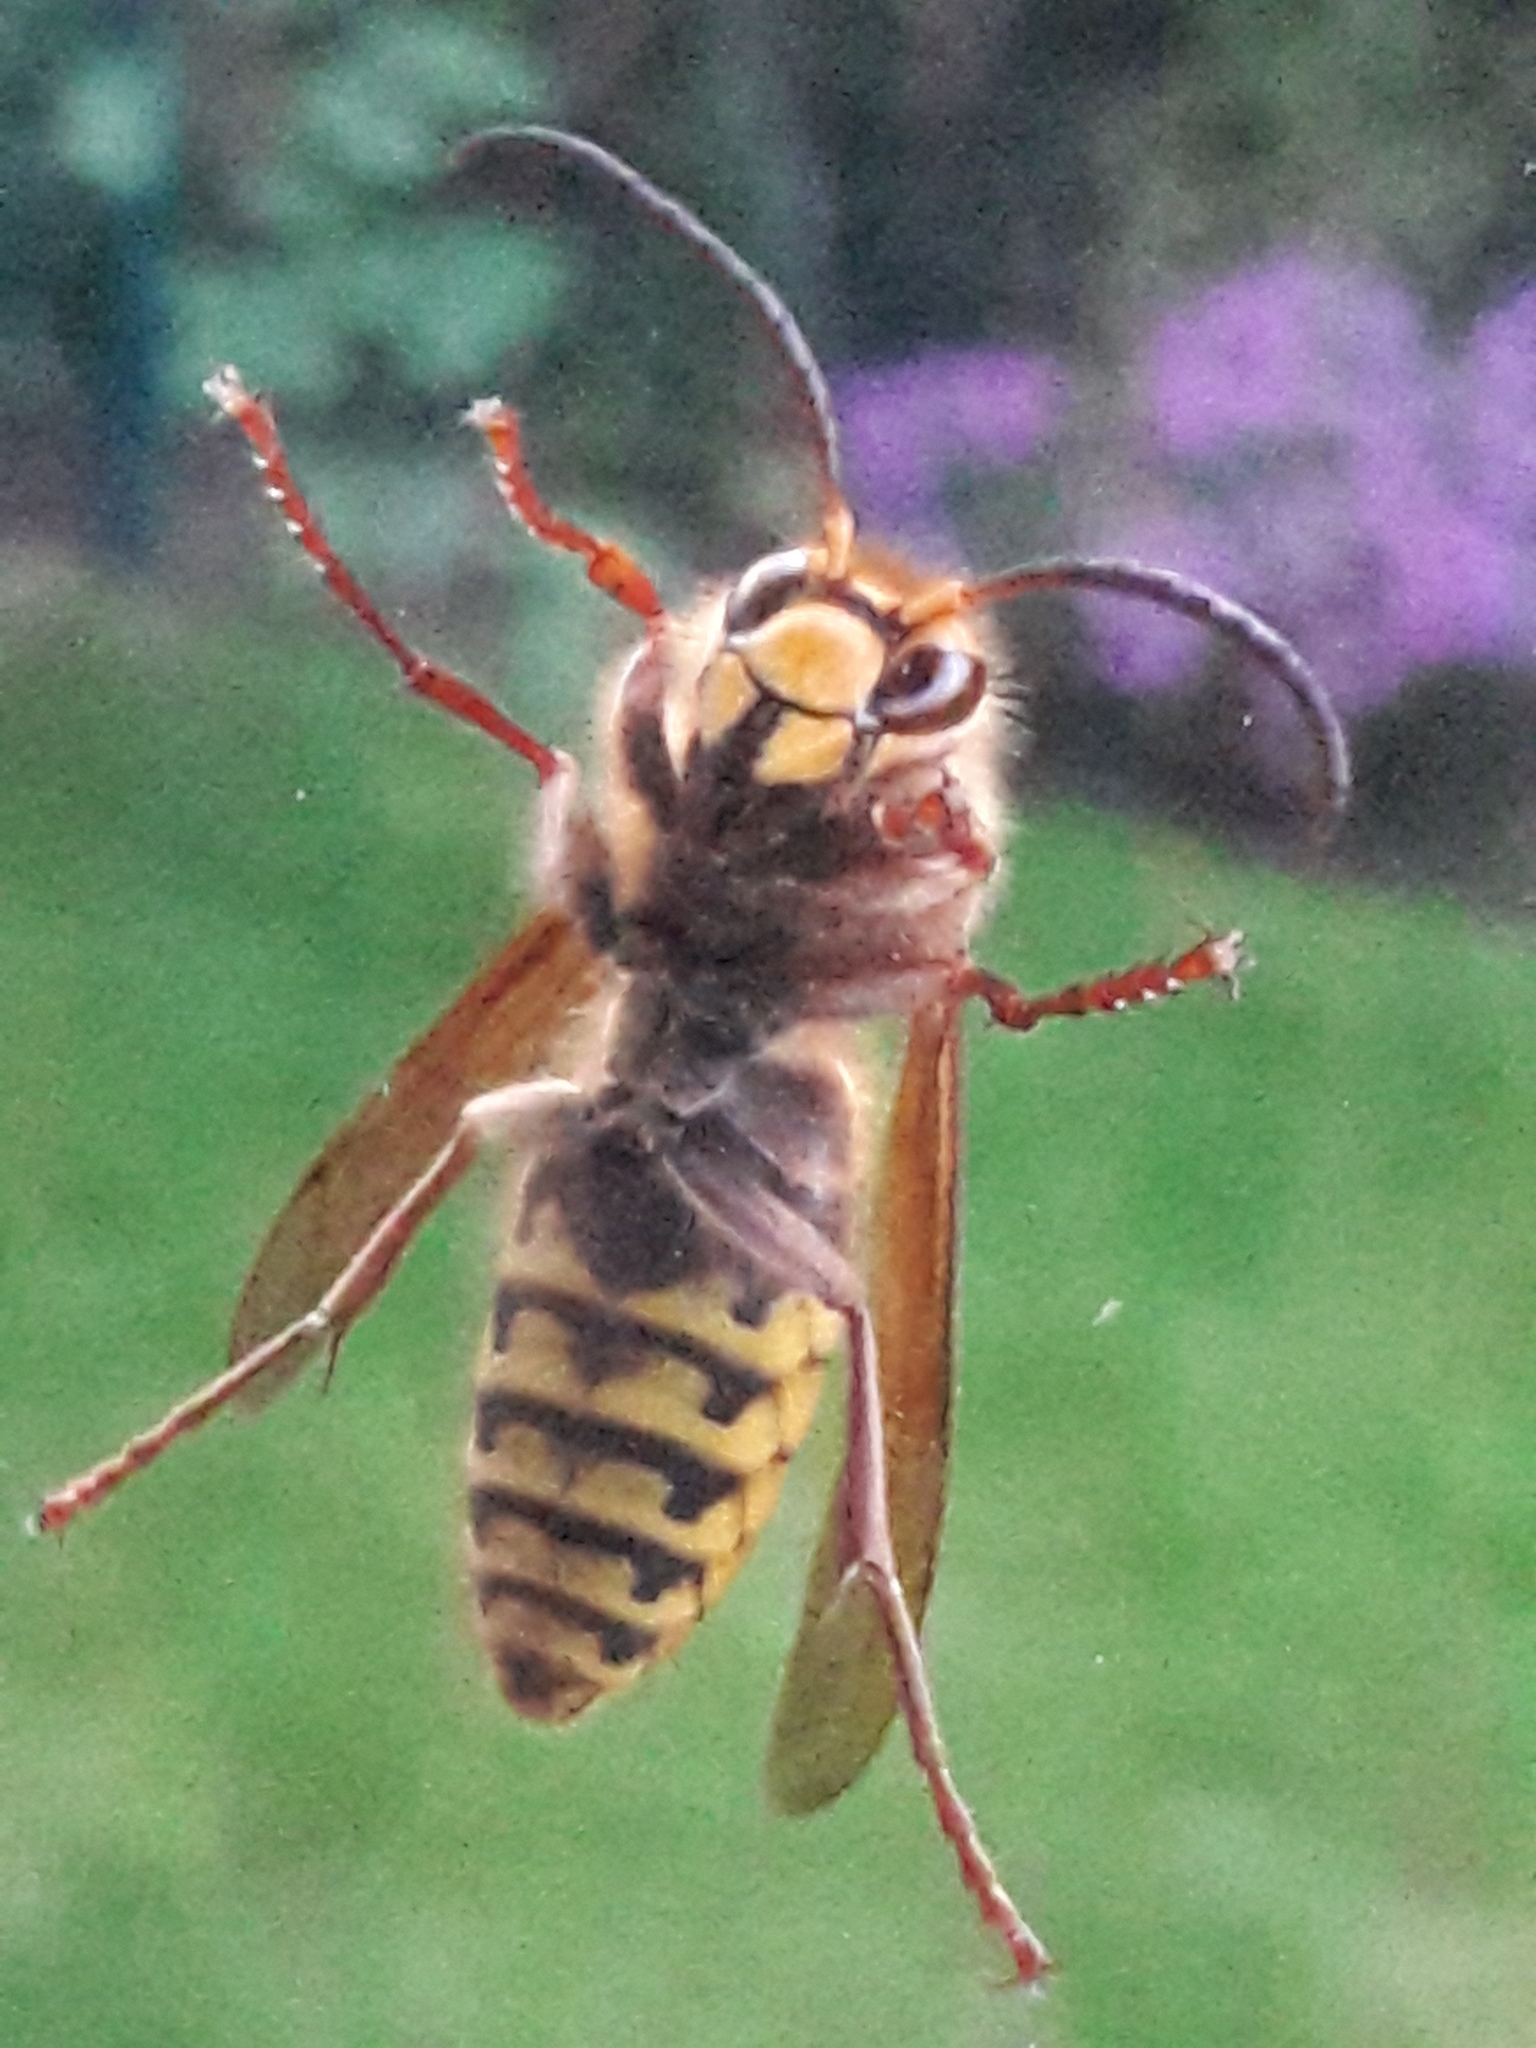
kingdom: Animalia
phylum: Arthropoda
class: Insecta
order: Hymenoptera
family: Vespidae
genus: Vespa
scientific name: Vespa crabro
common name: Hornet
